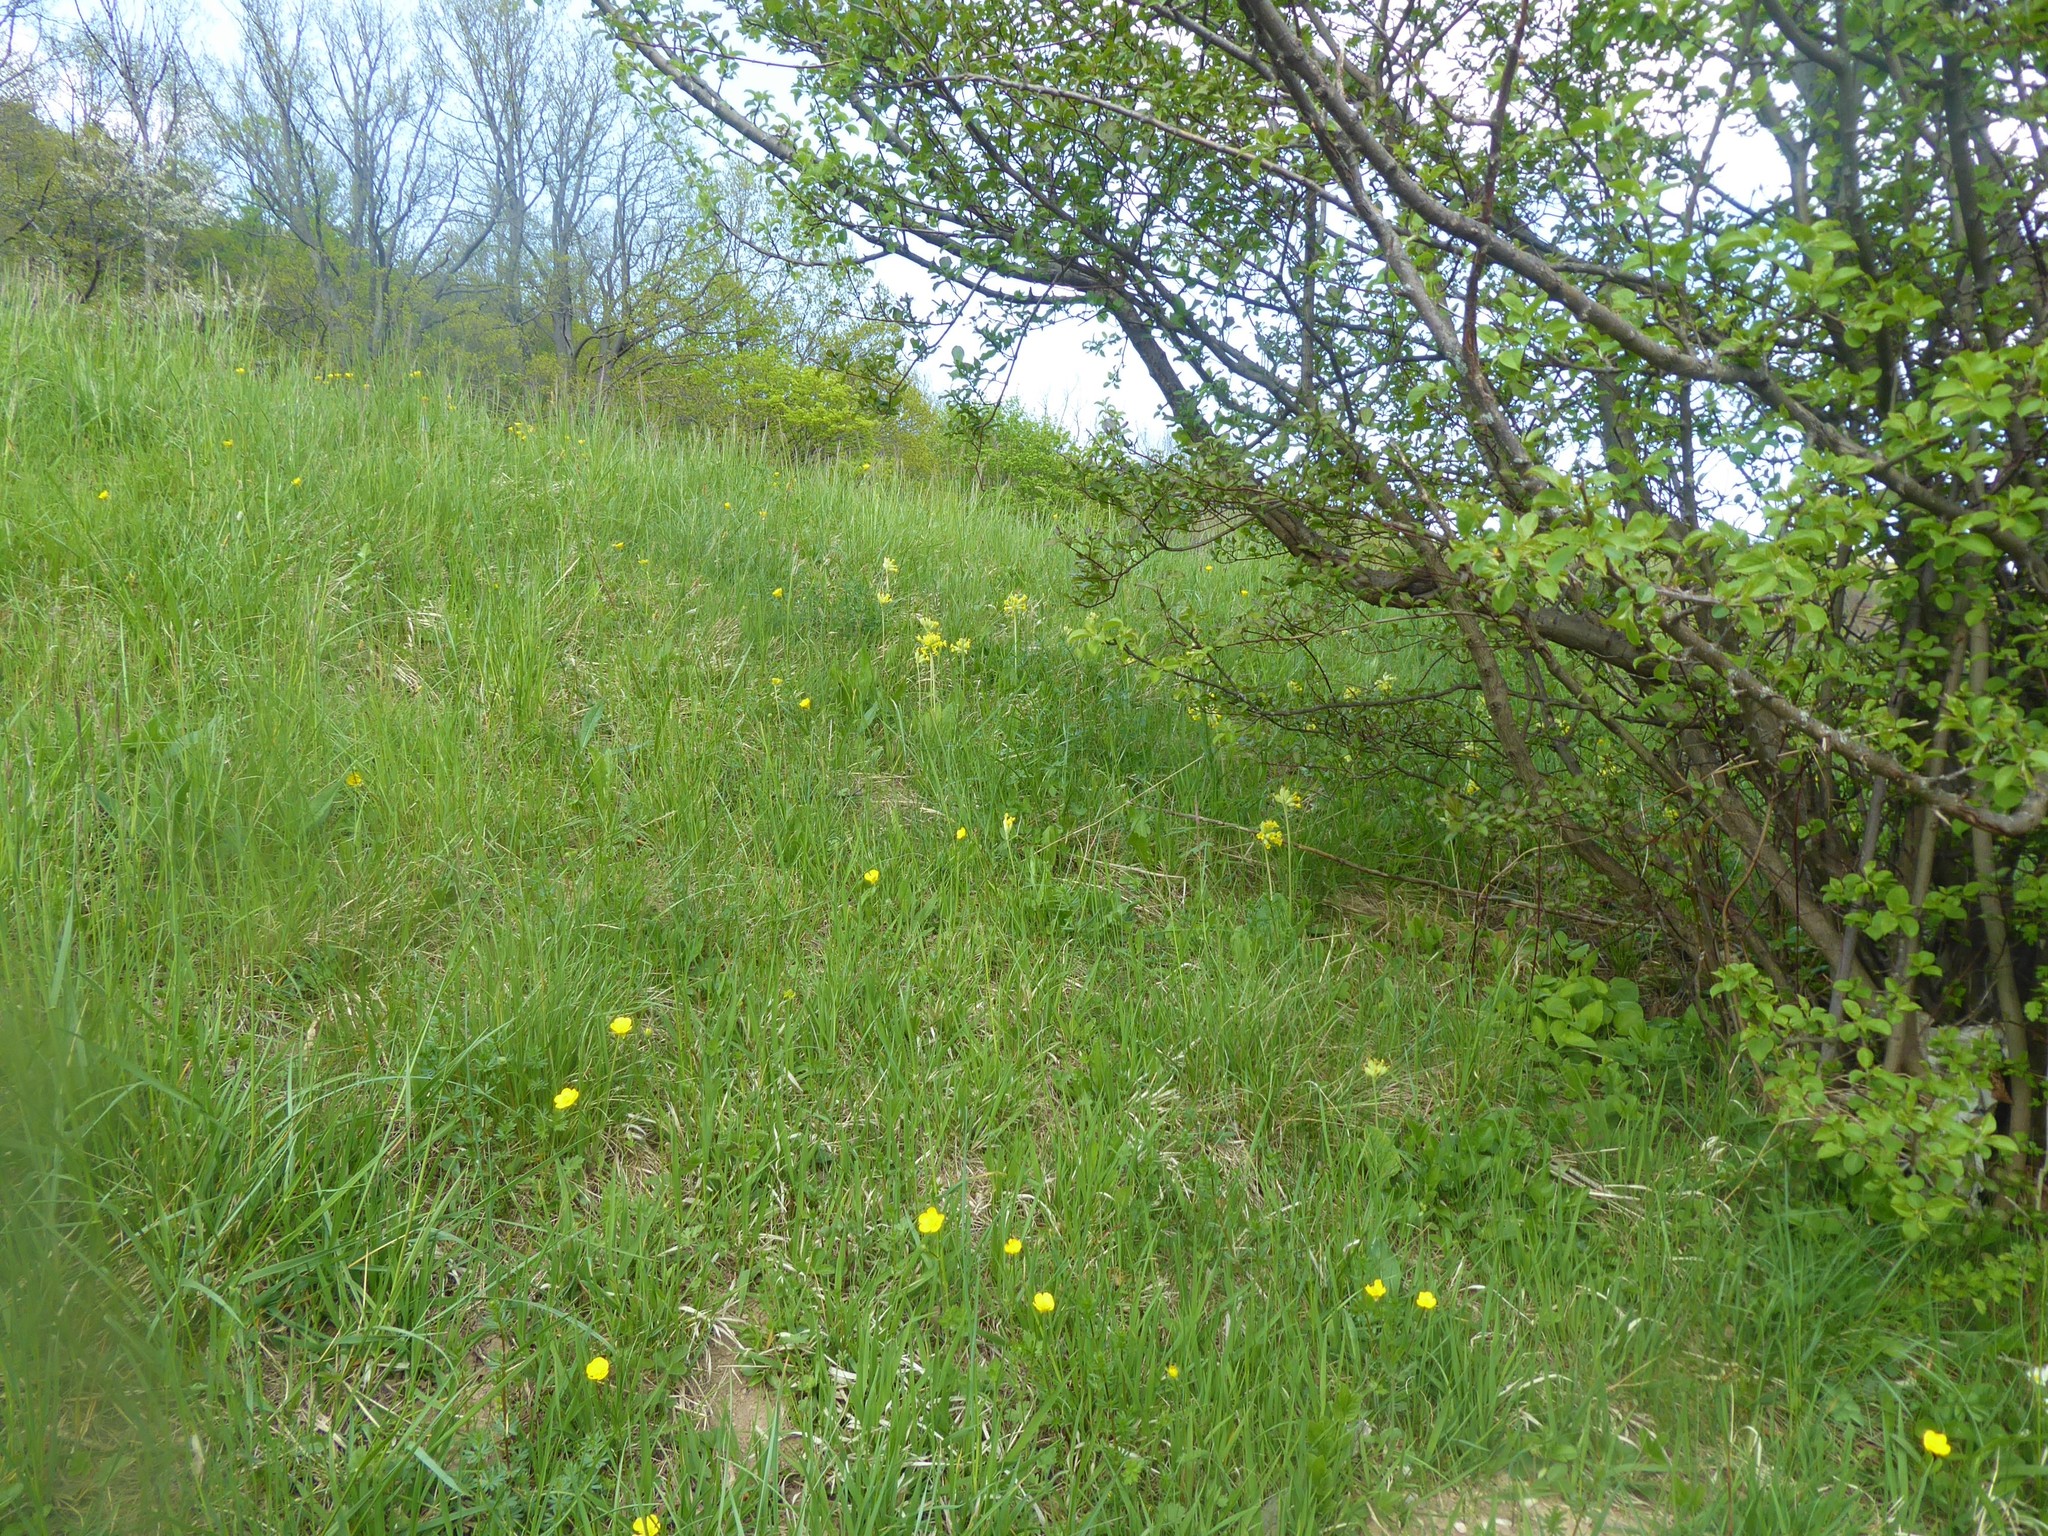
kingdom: Plantae
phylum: Tracheophyta
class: Magnoliopsida
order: Ericales
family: Primulaceae
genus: Primula
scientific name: Primula veris
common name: Cowslip
